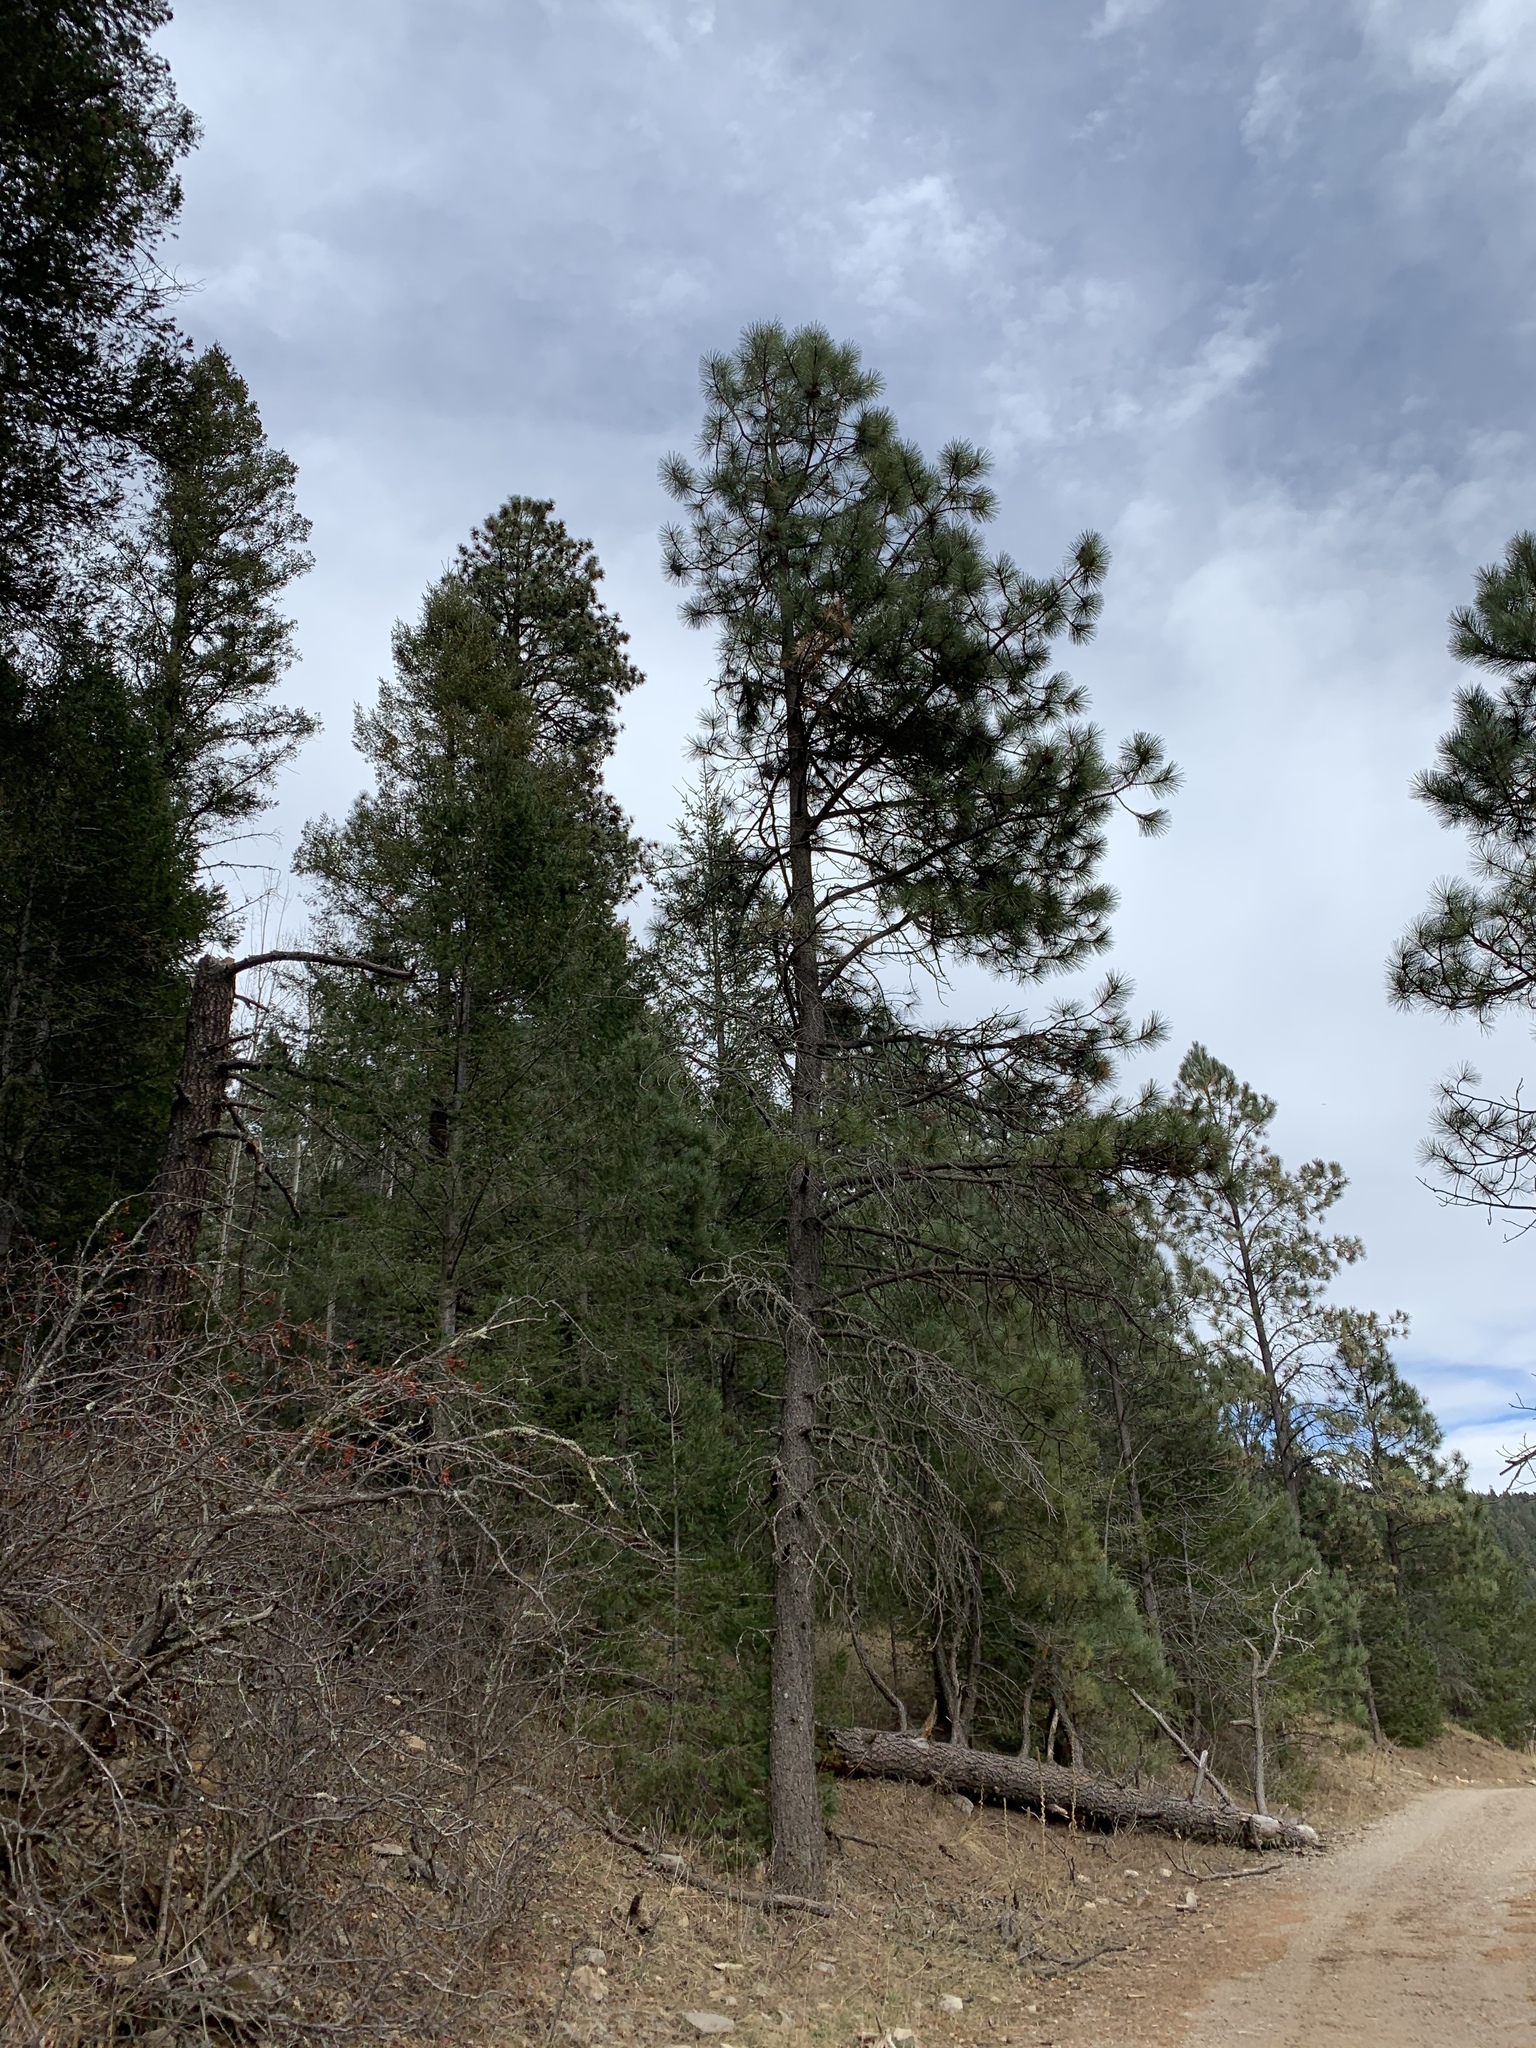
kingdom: Plantae
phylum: Tracheophyta
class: Pinopsida
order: Pinales
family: Pinaceae
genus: Pinus
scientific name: Pinus ponderosa
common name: Western yellow-pine
